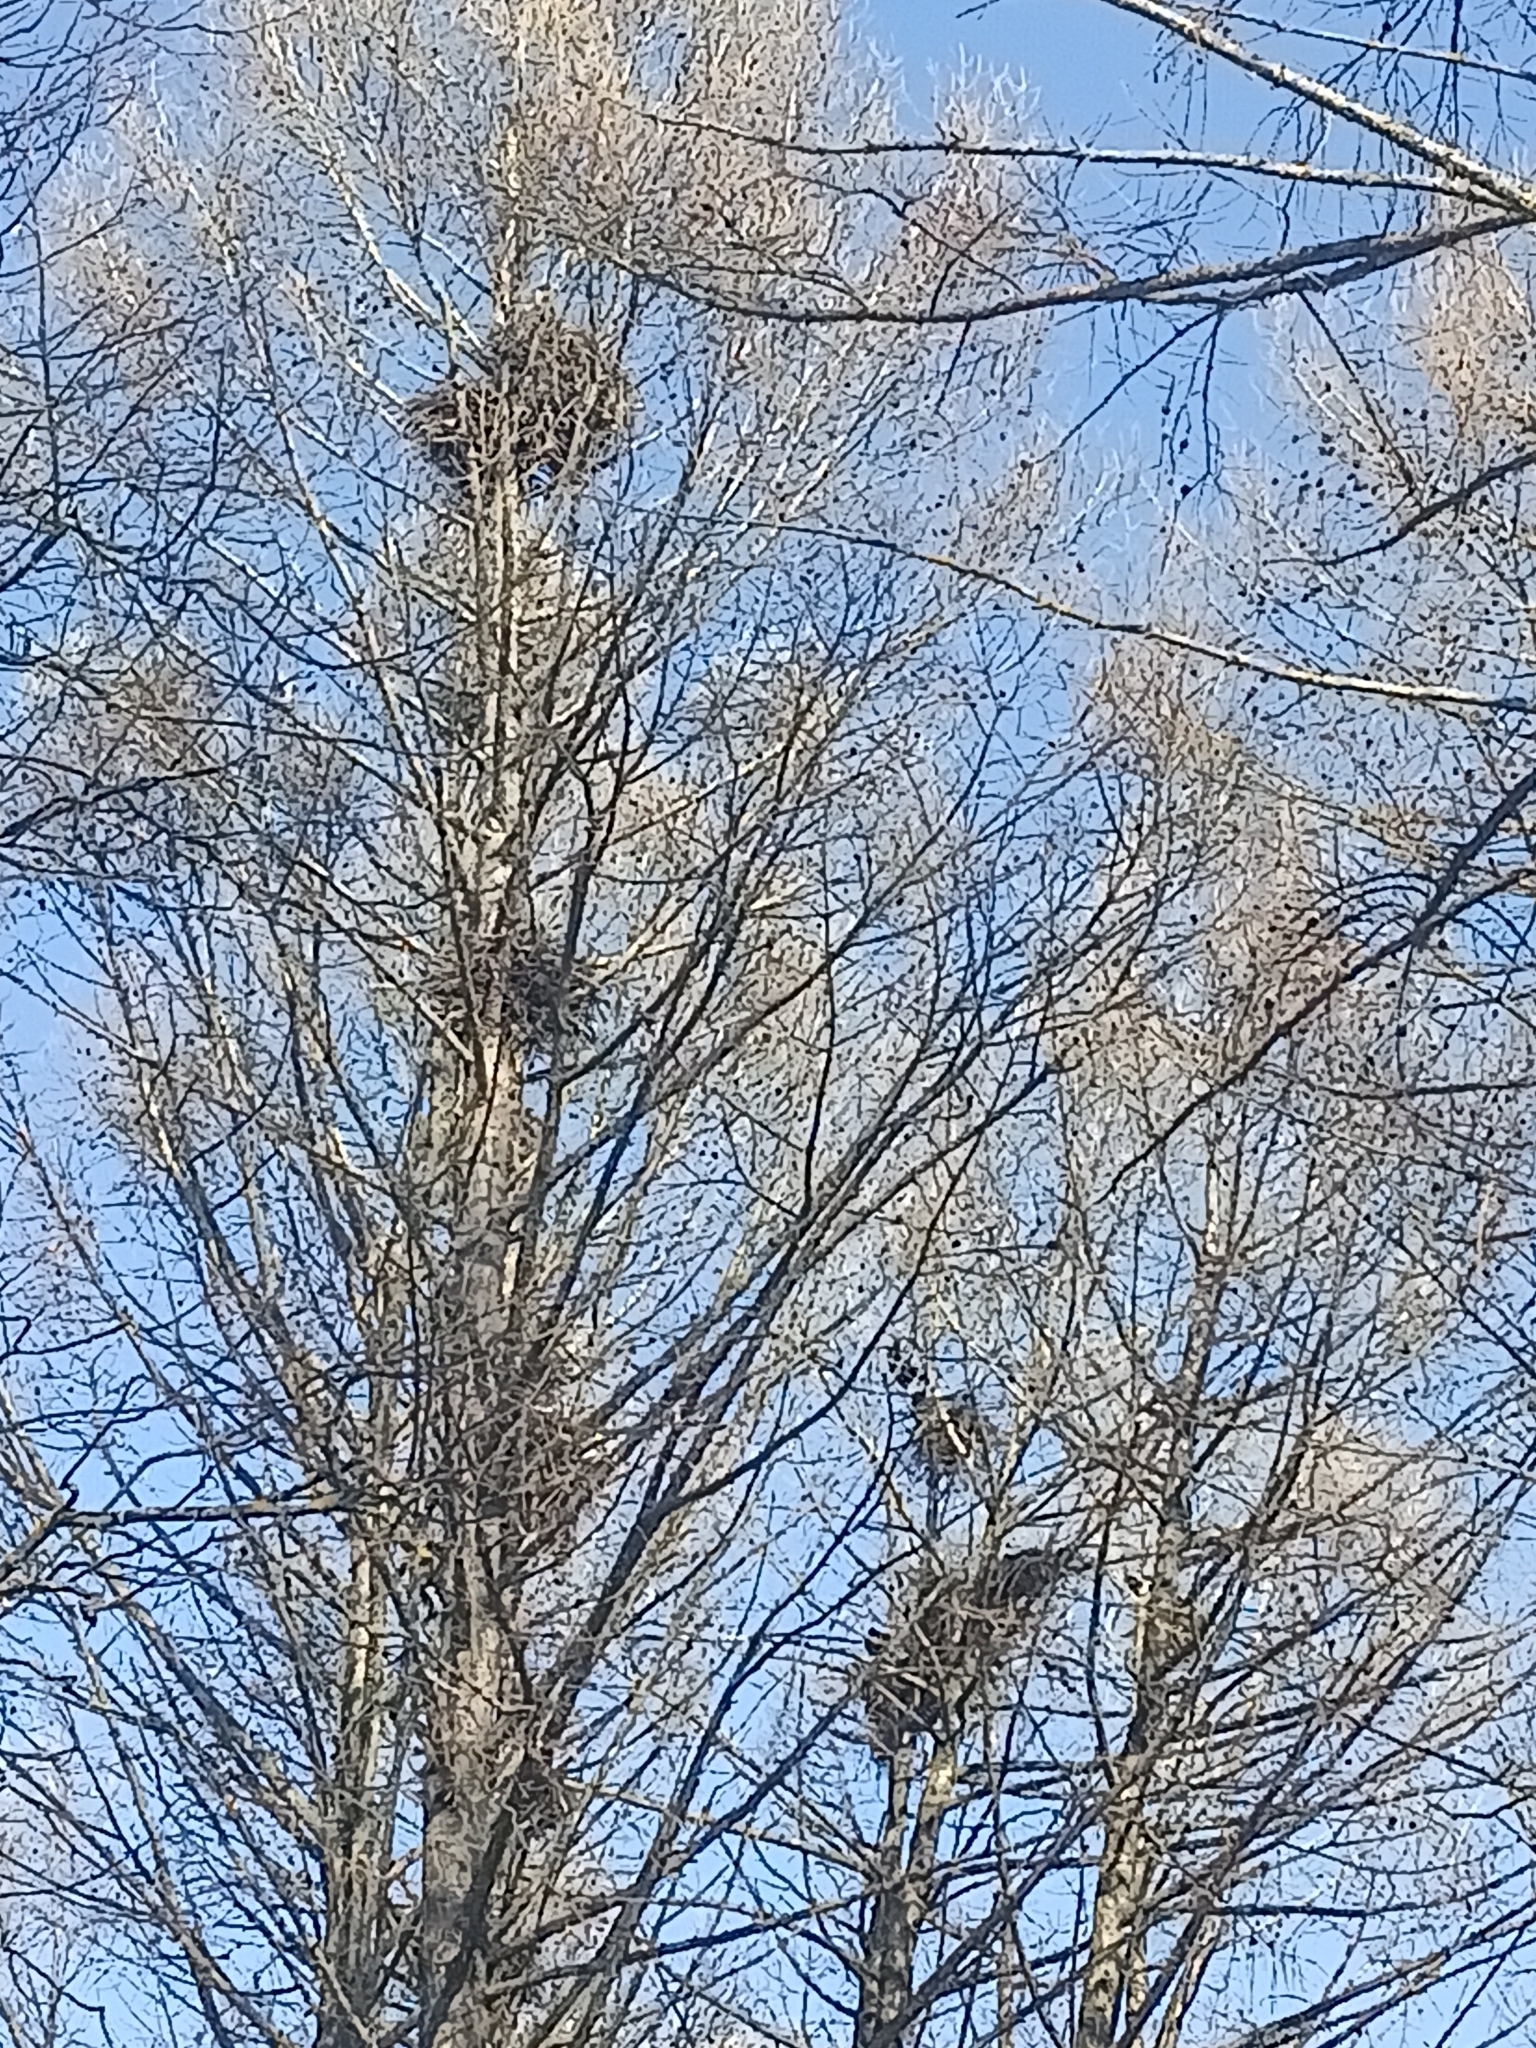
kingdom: Animalia
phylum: Chordata
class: Aves
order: Passeriformes
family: Corvidae
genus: Corvus
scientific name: Corvus frugilegus
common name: Rook
